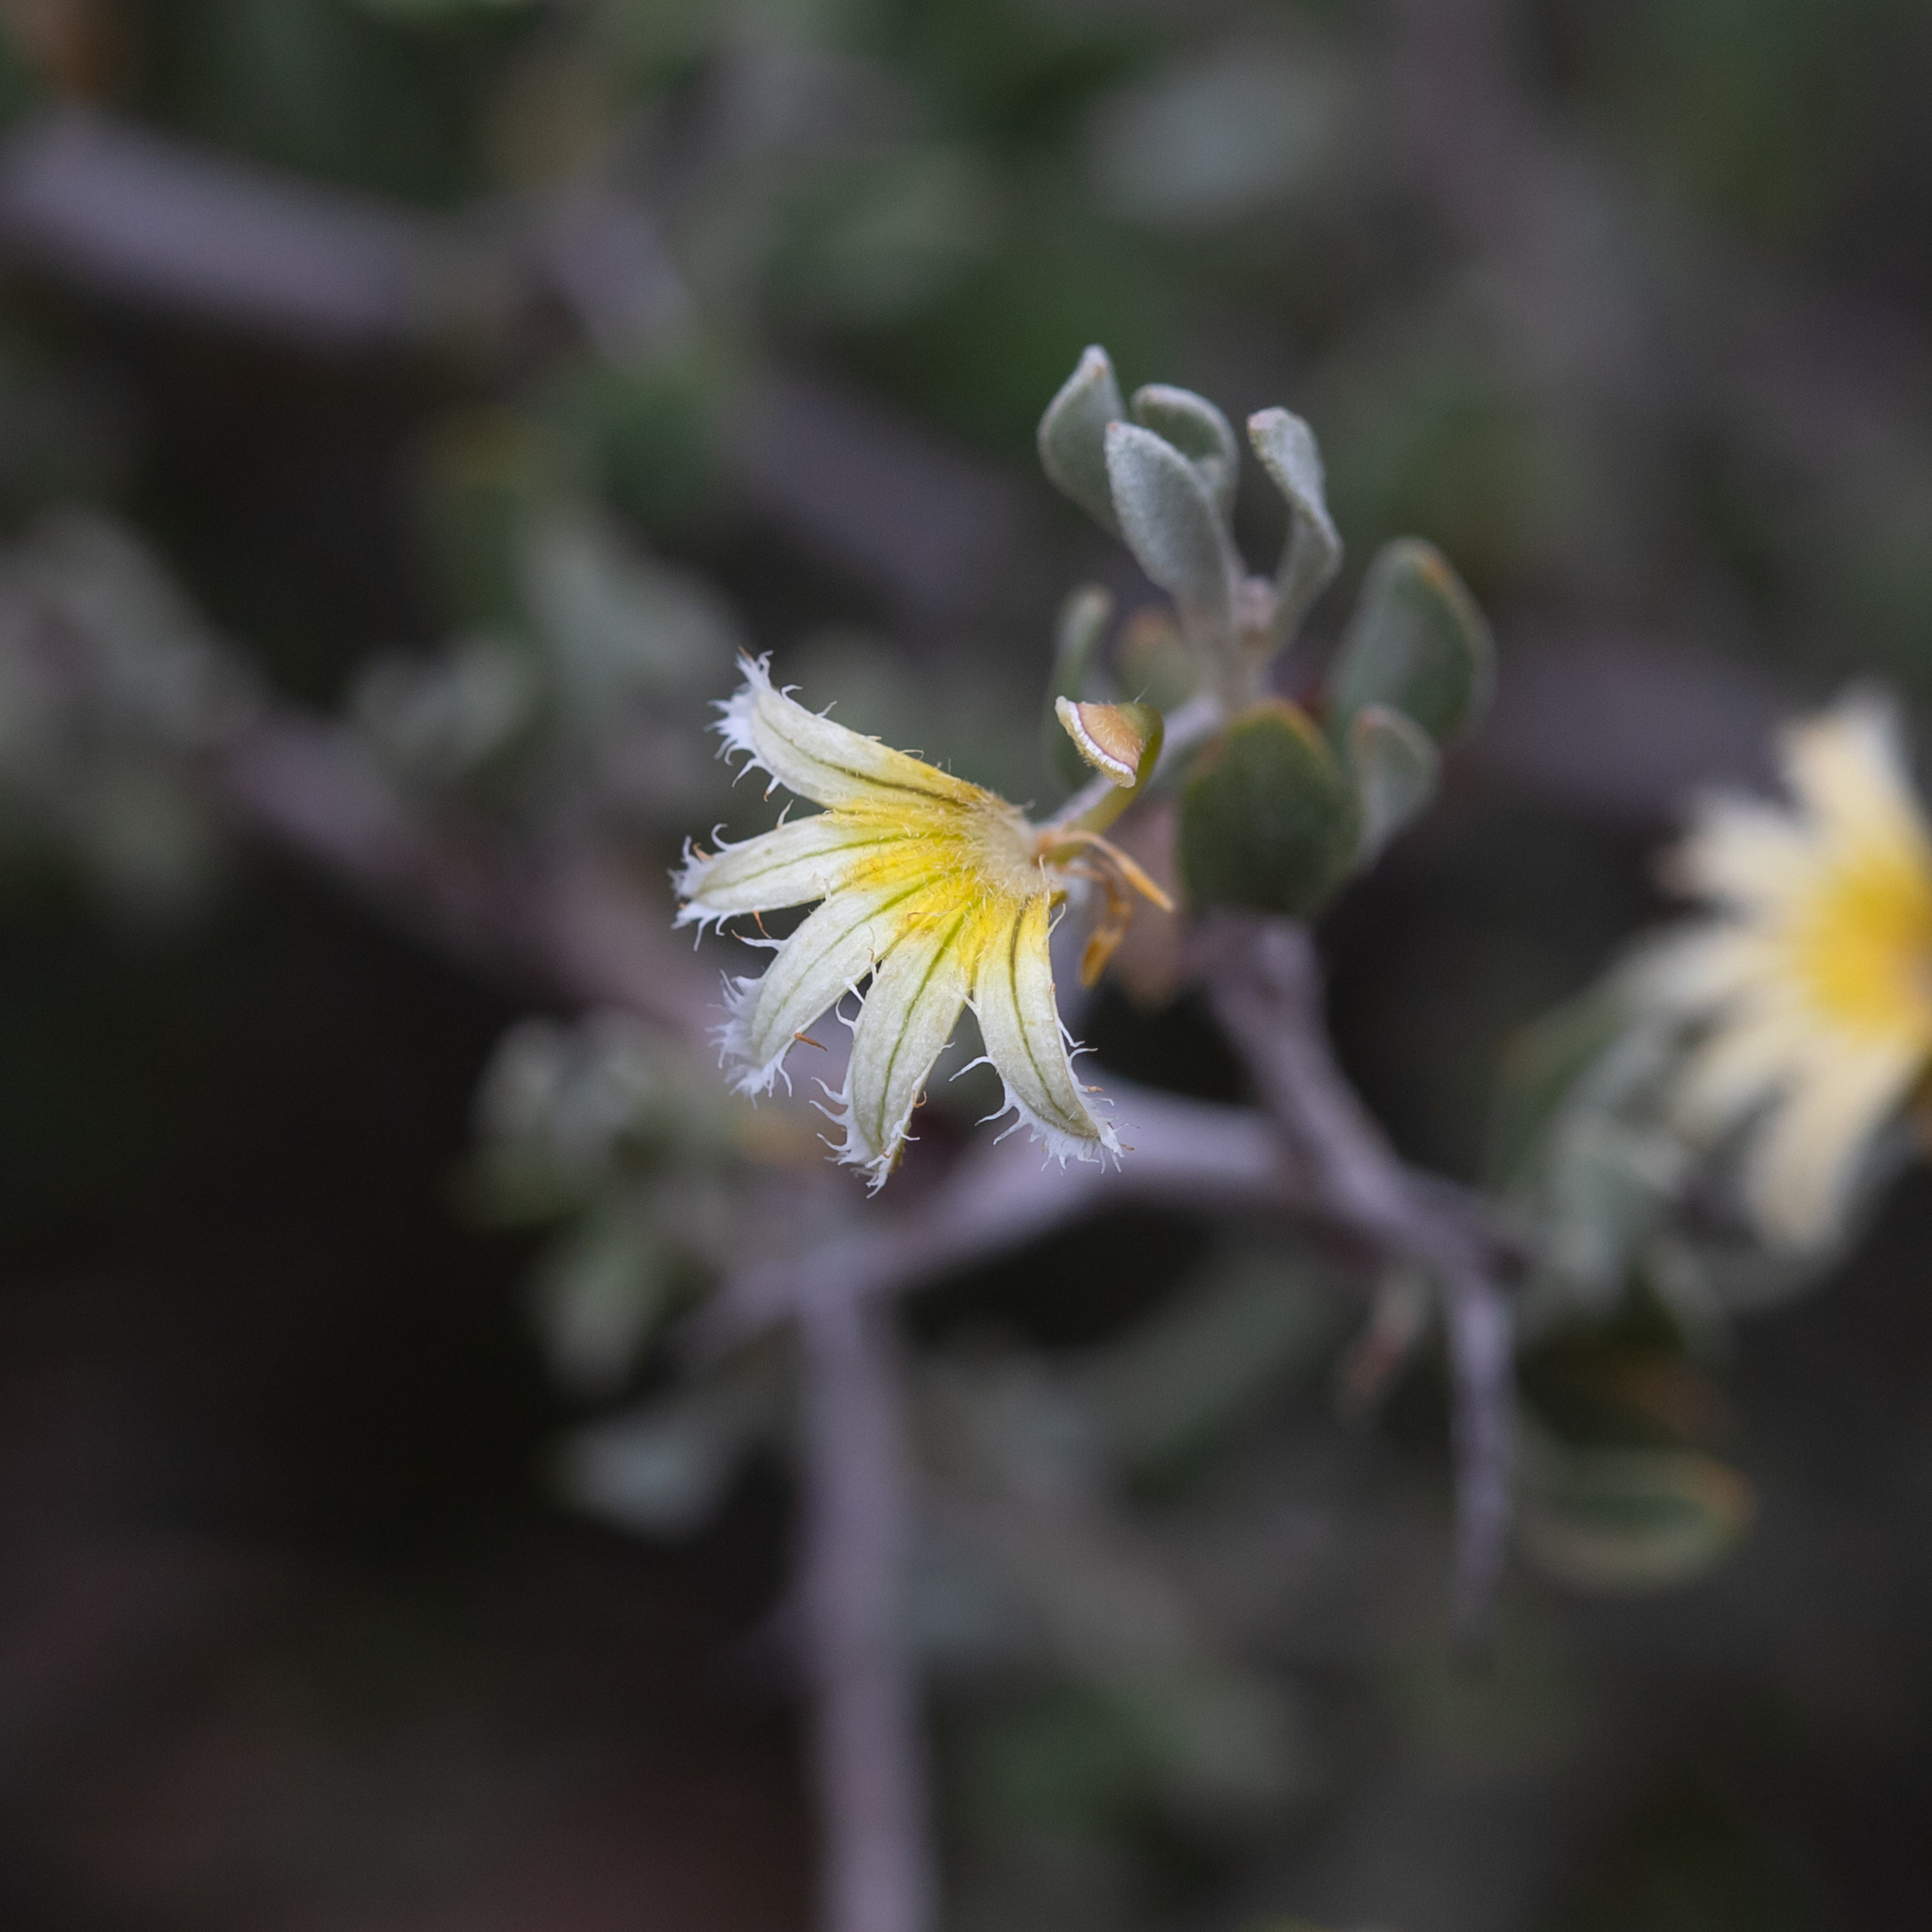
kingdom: Plantae
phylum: Tracheophyta
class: Magnoliopsida
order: Asterales
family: Goodeniaceae
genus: Scaevola
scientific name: Scaevola spinescens
